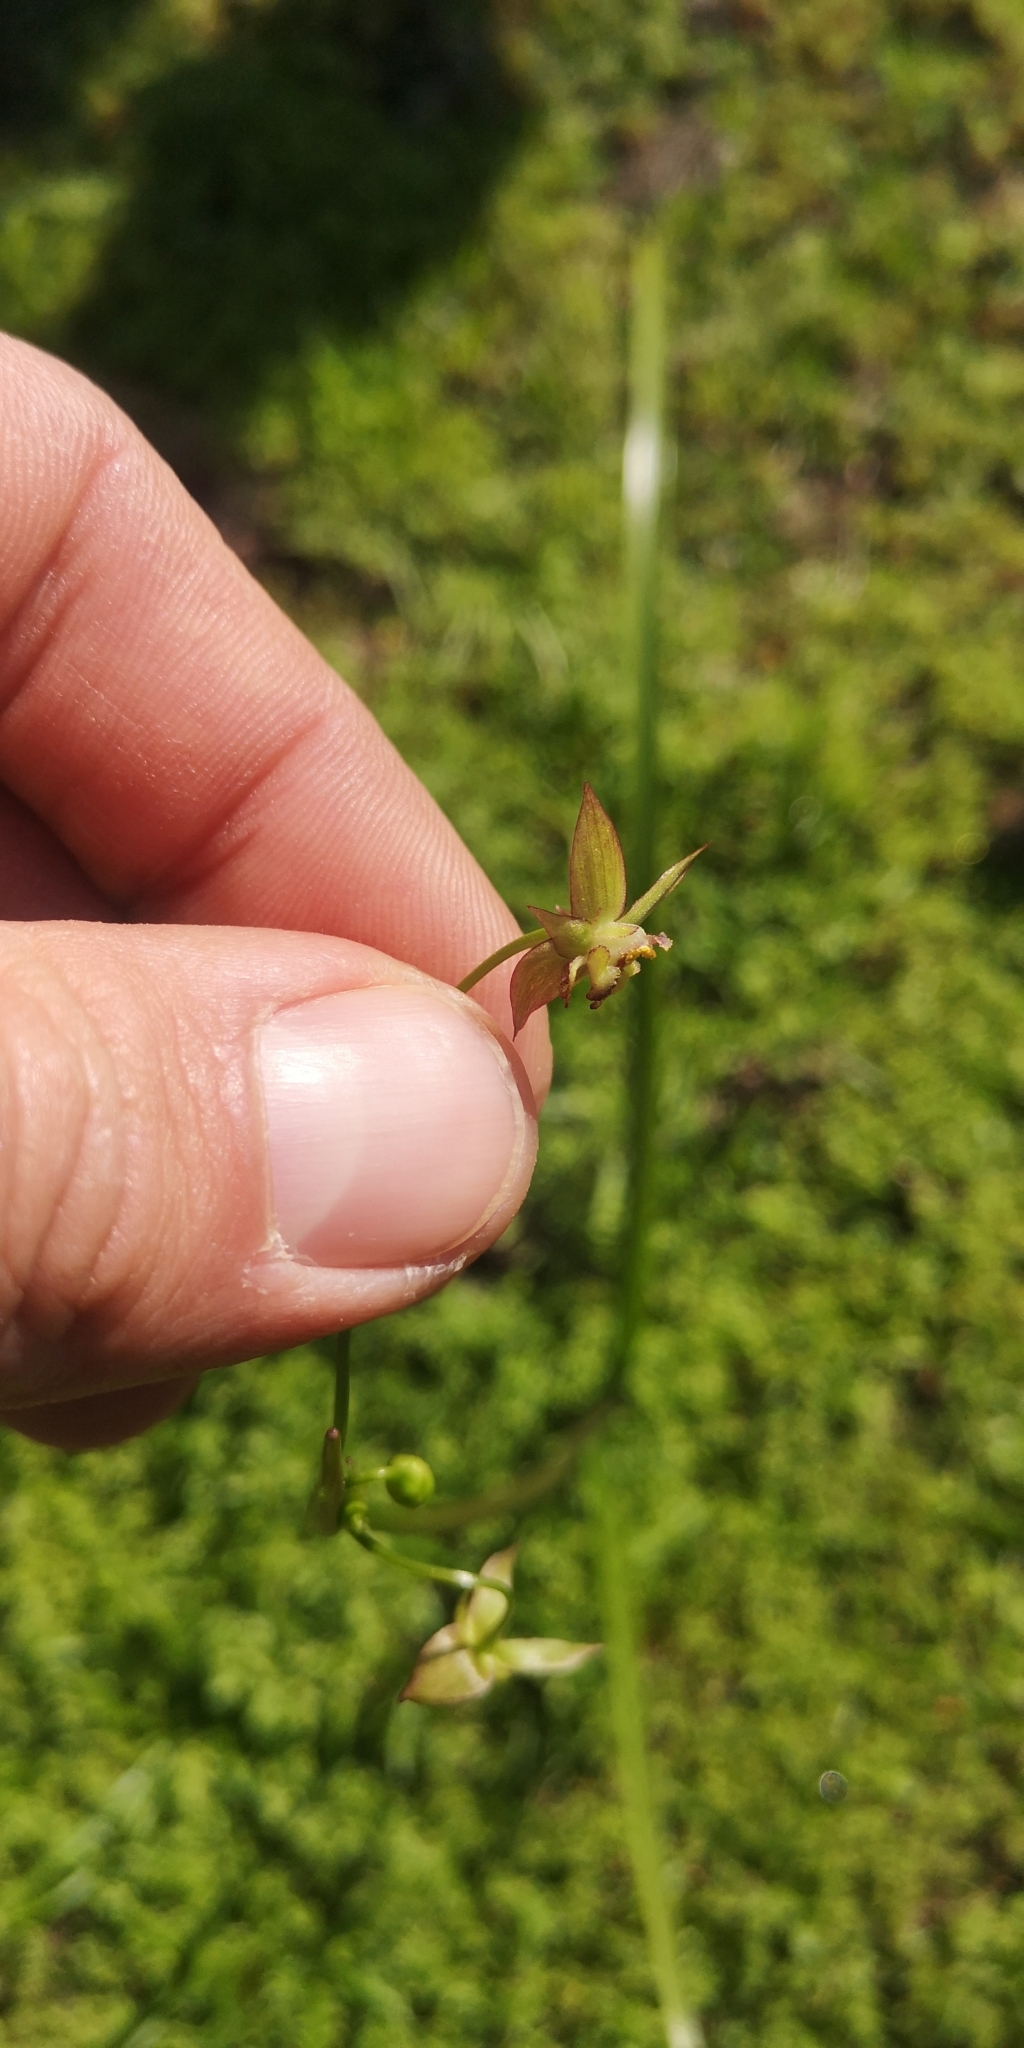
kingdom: Plantae
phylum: Tracheophyta
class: Liliopsida
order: Asparagales
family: Amaryllidaceae
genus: Gilliesia
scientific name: Gilliesia graminea
